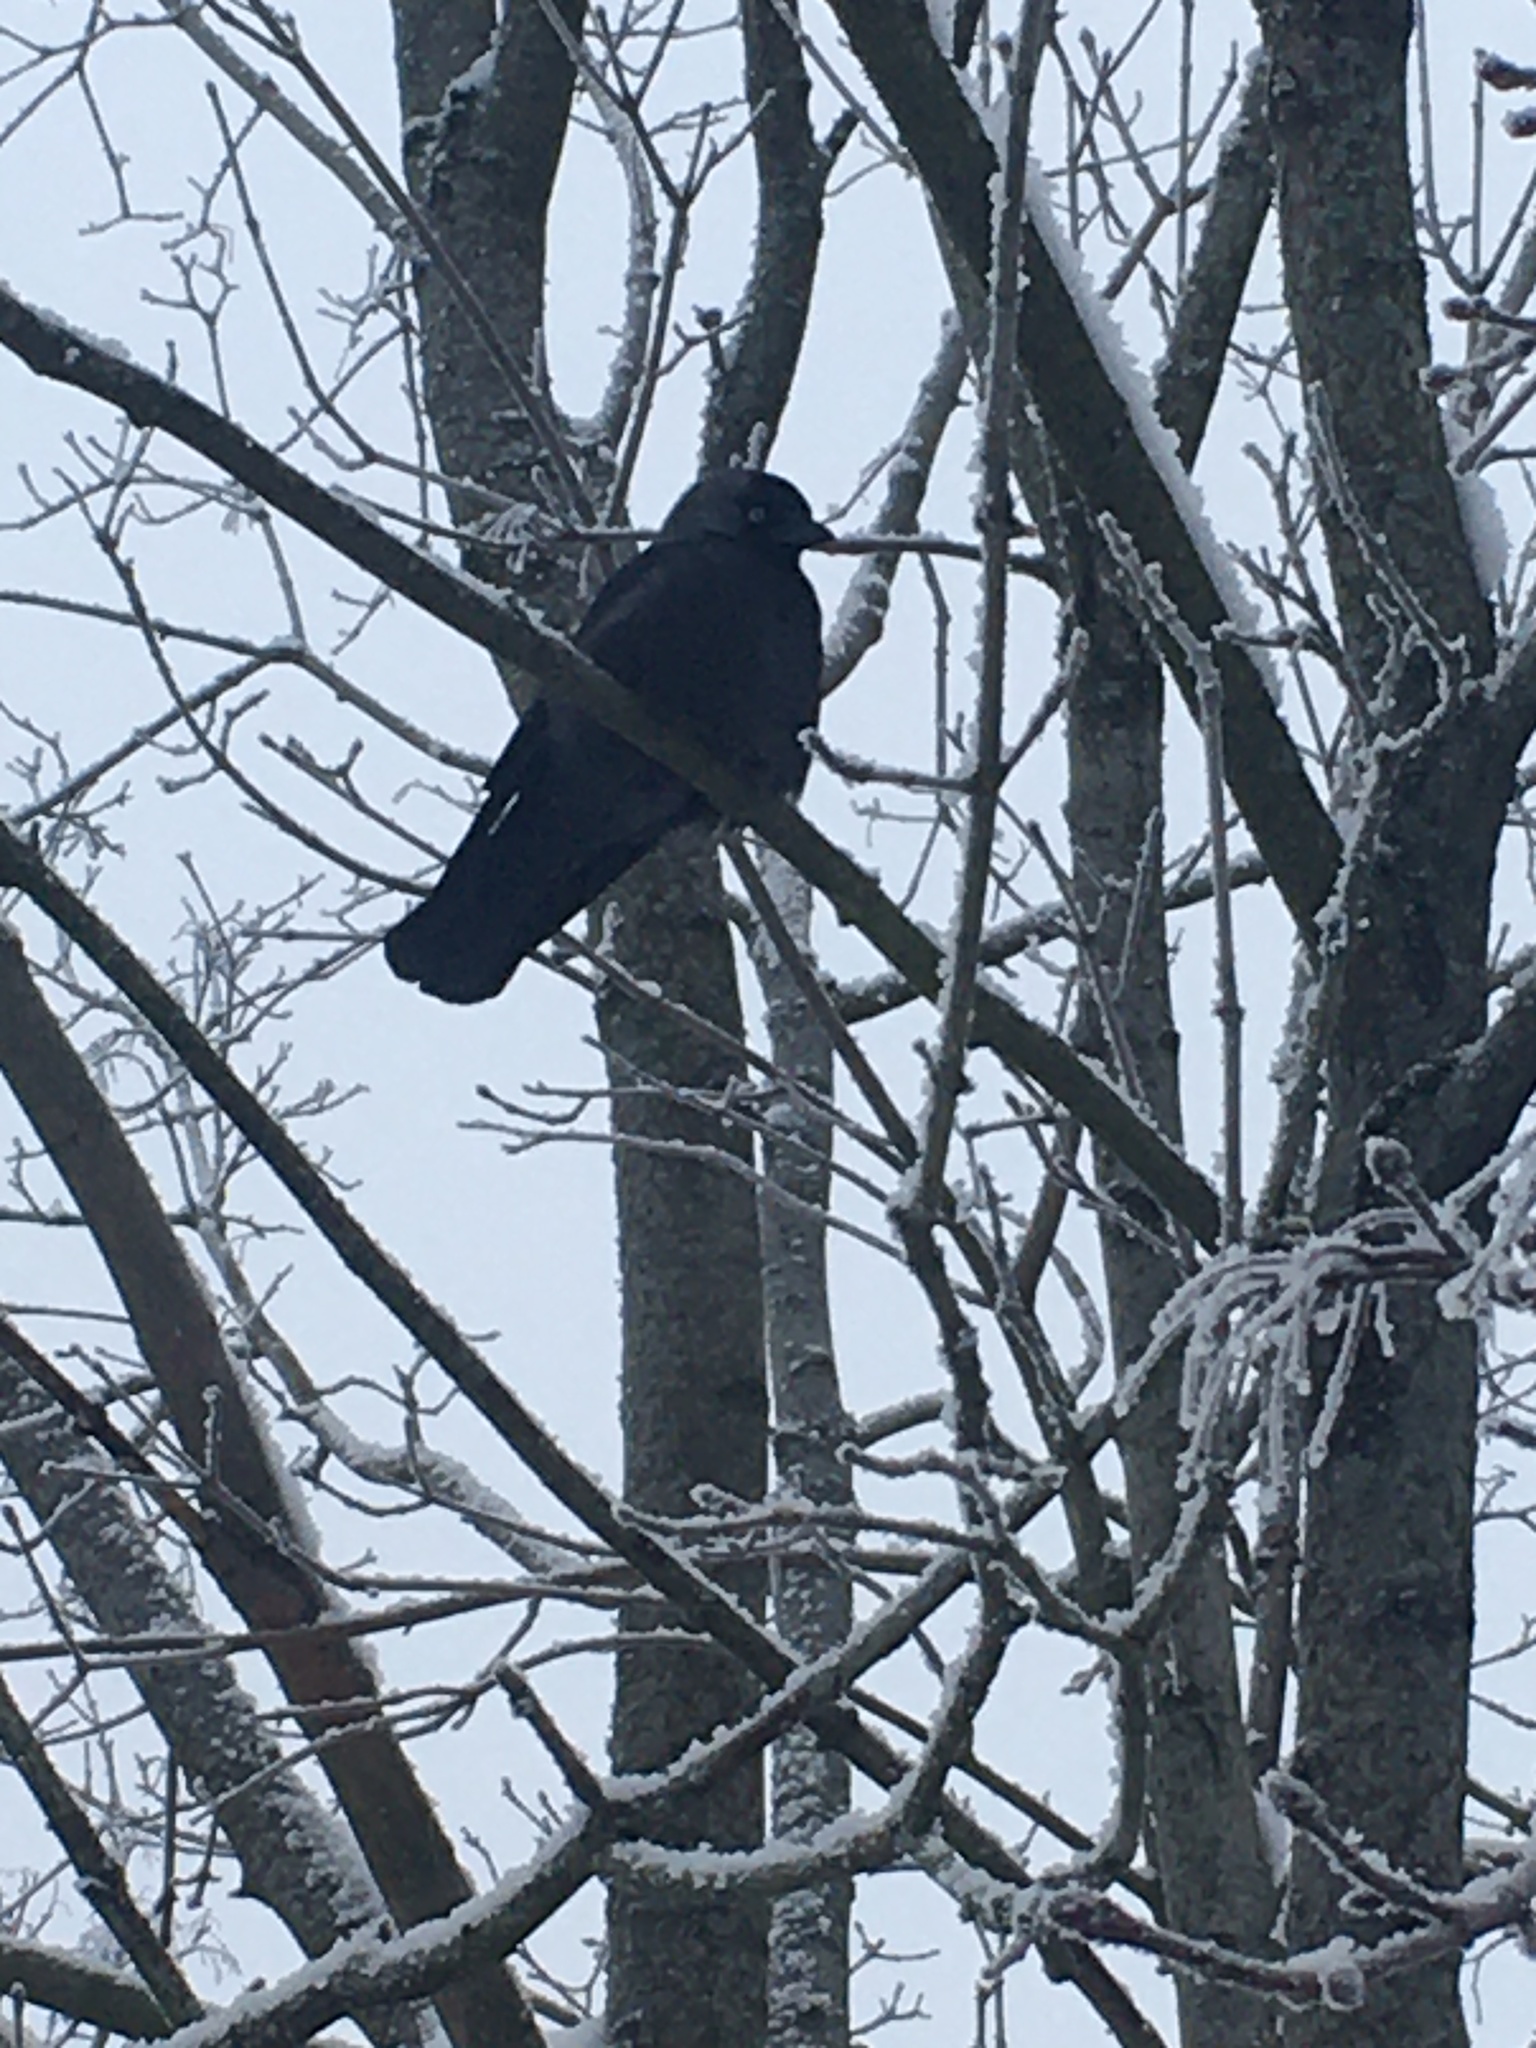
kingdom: Animalia
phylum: Chordata
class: Aves
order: Passeriformes
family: Corvidae
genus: Coloeus
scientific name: Coloeus monedula
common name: Western jackdaw
